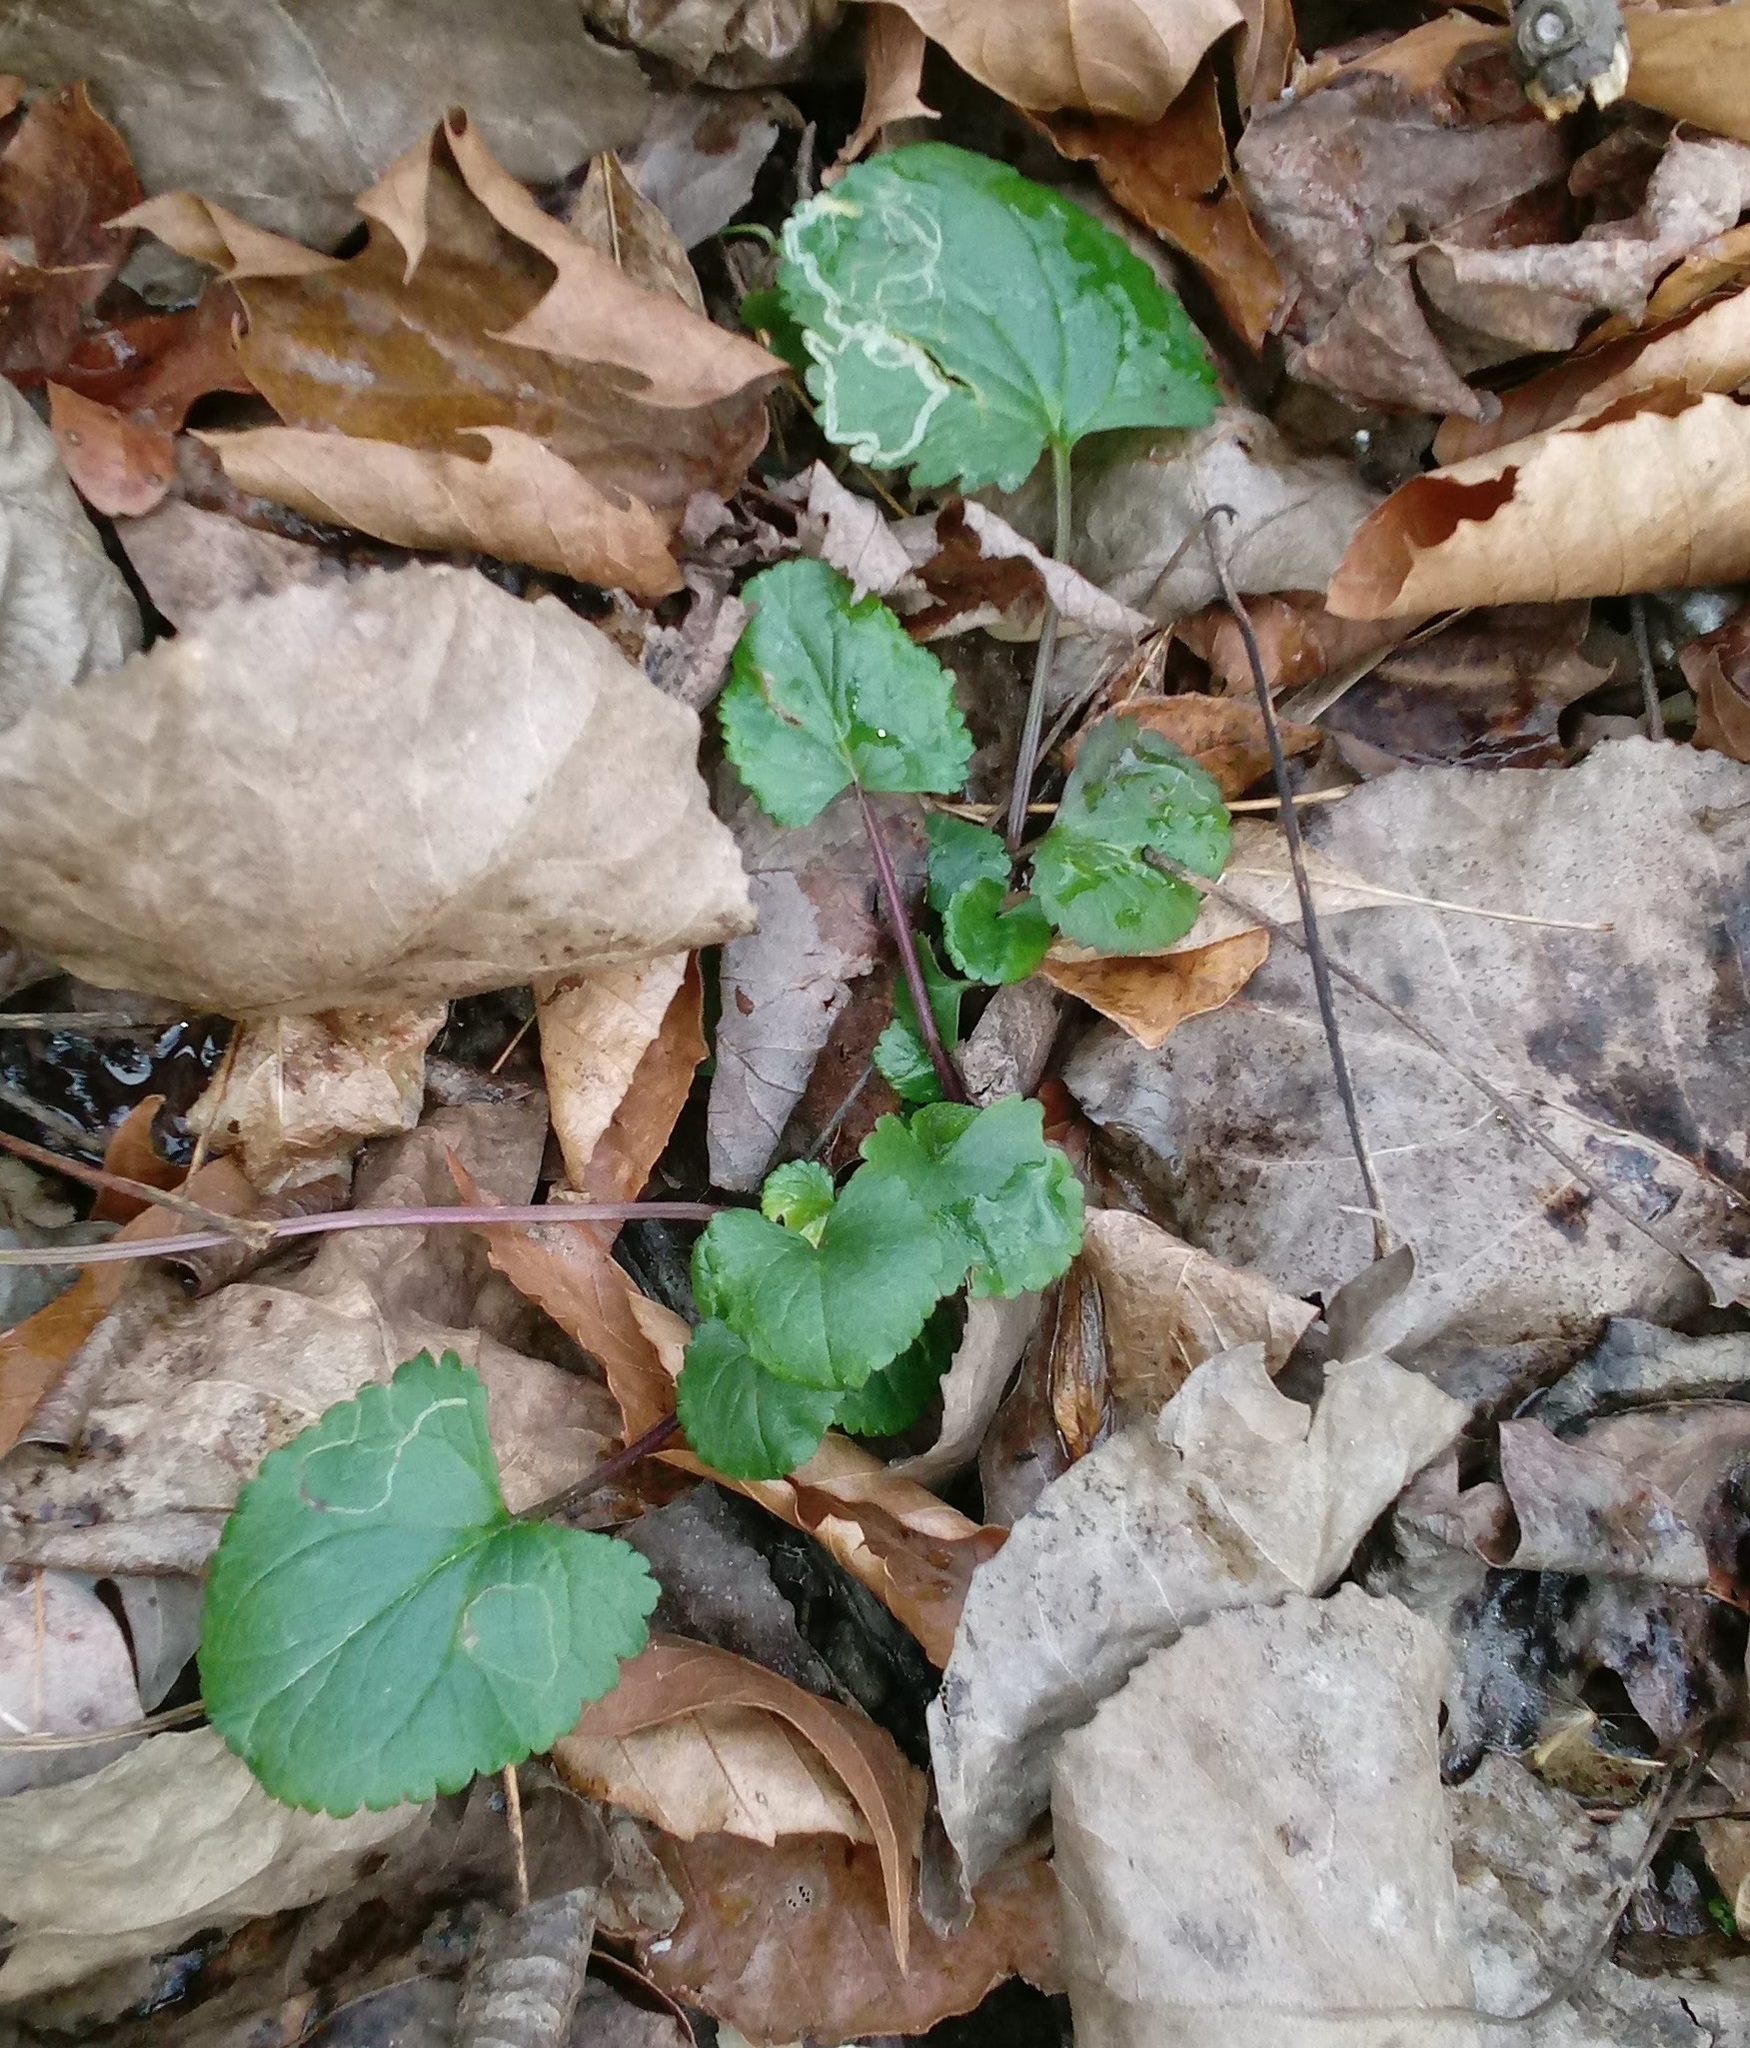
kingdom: Animalia
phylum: Arthropoda
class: Insecta
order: Lepidoptera
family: Gracillariidae
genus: Phyllocnistis
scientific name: Phyllocnistis insignis
